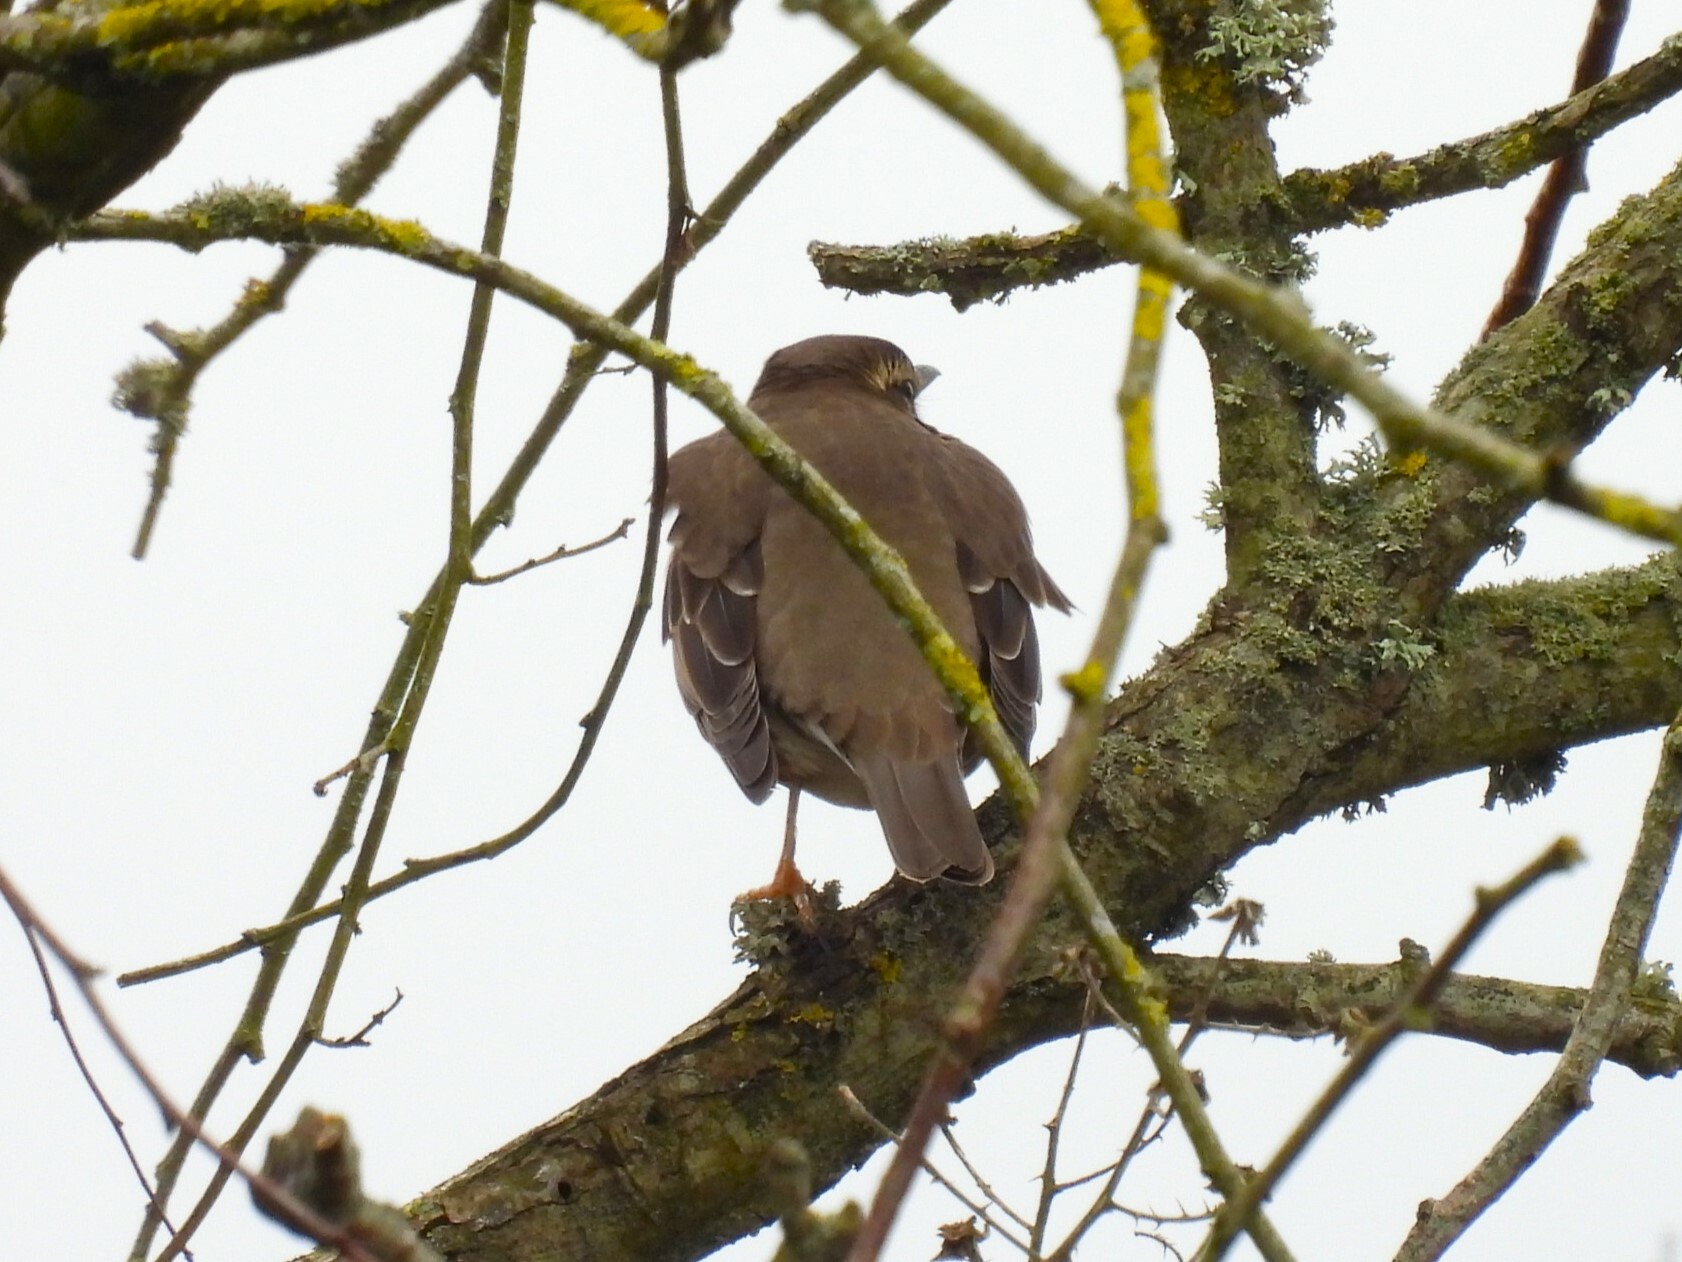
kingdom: Animalia
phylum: Chordata
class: Aves
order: Passeriformes
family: Turdidae
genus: Turdus
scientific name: Turdus iliacus
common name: Redwing
